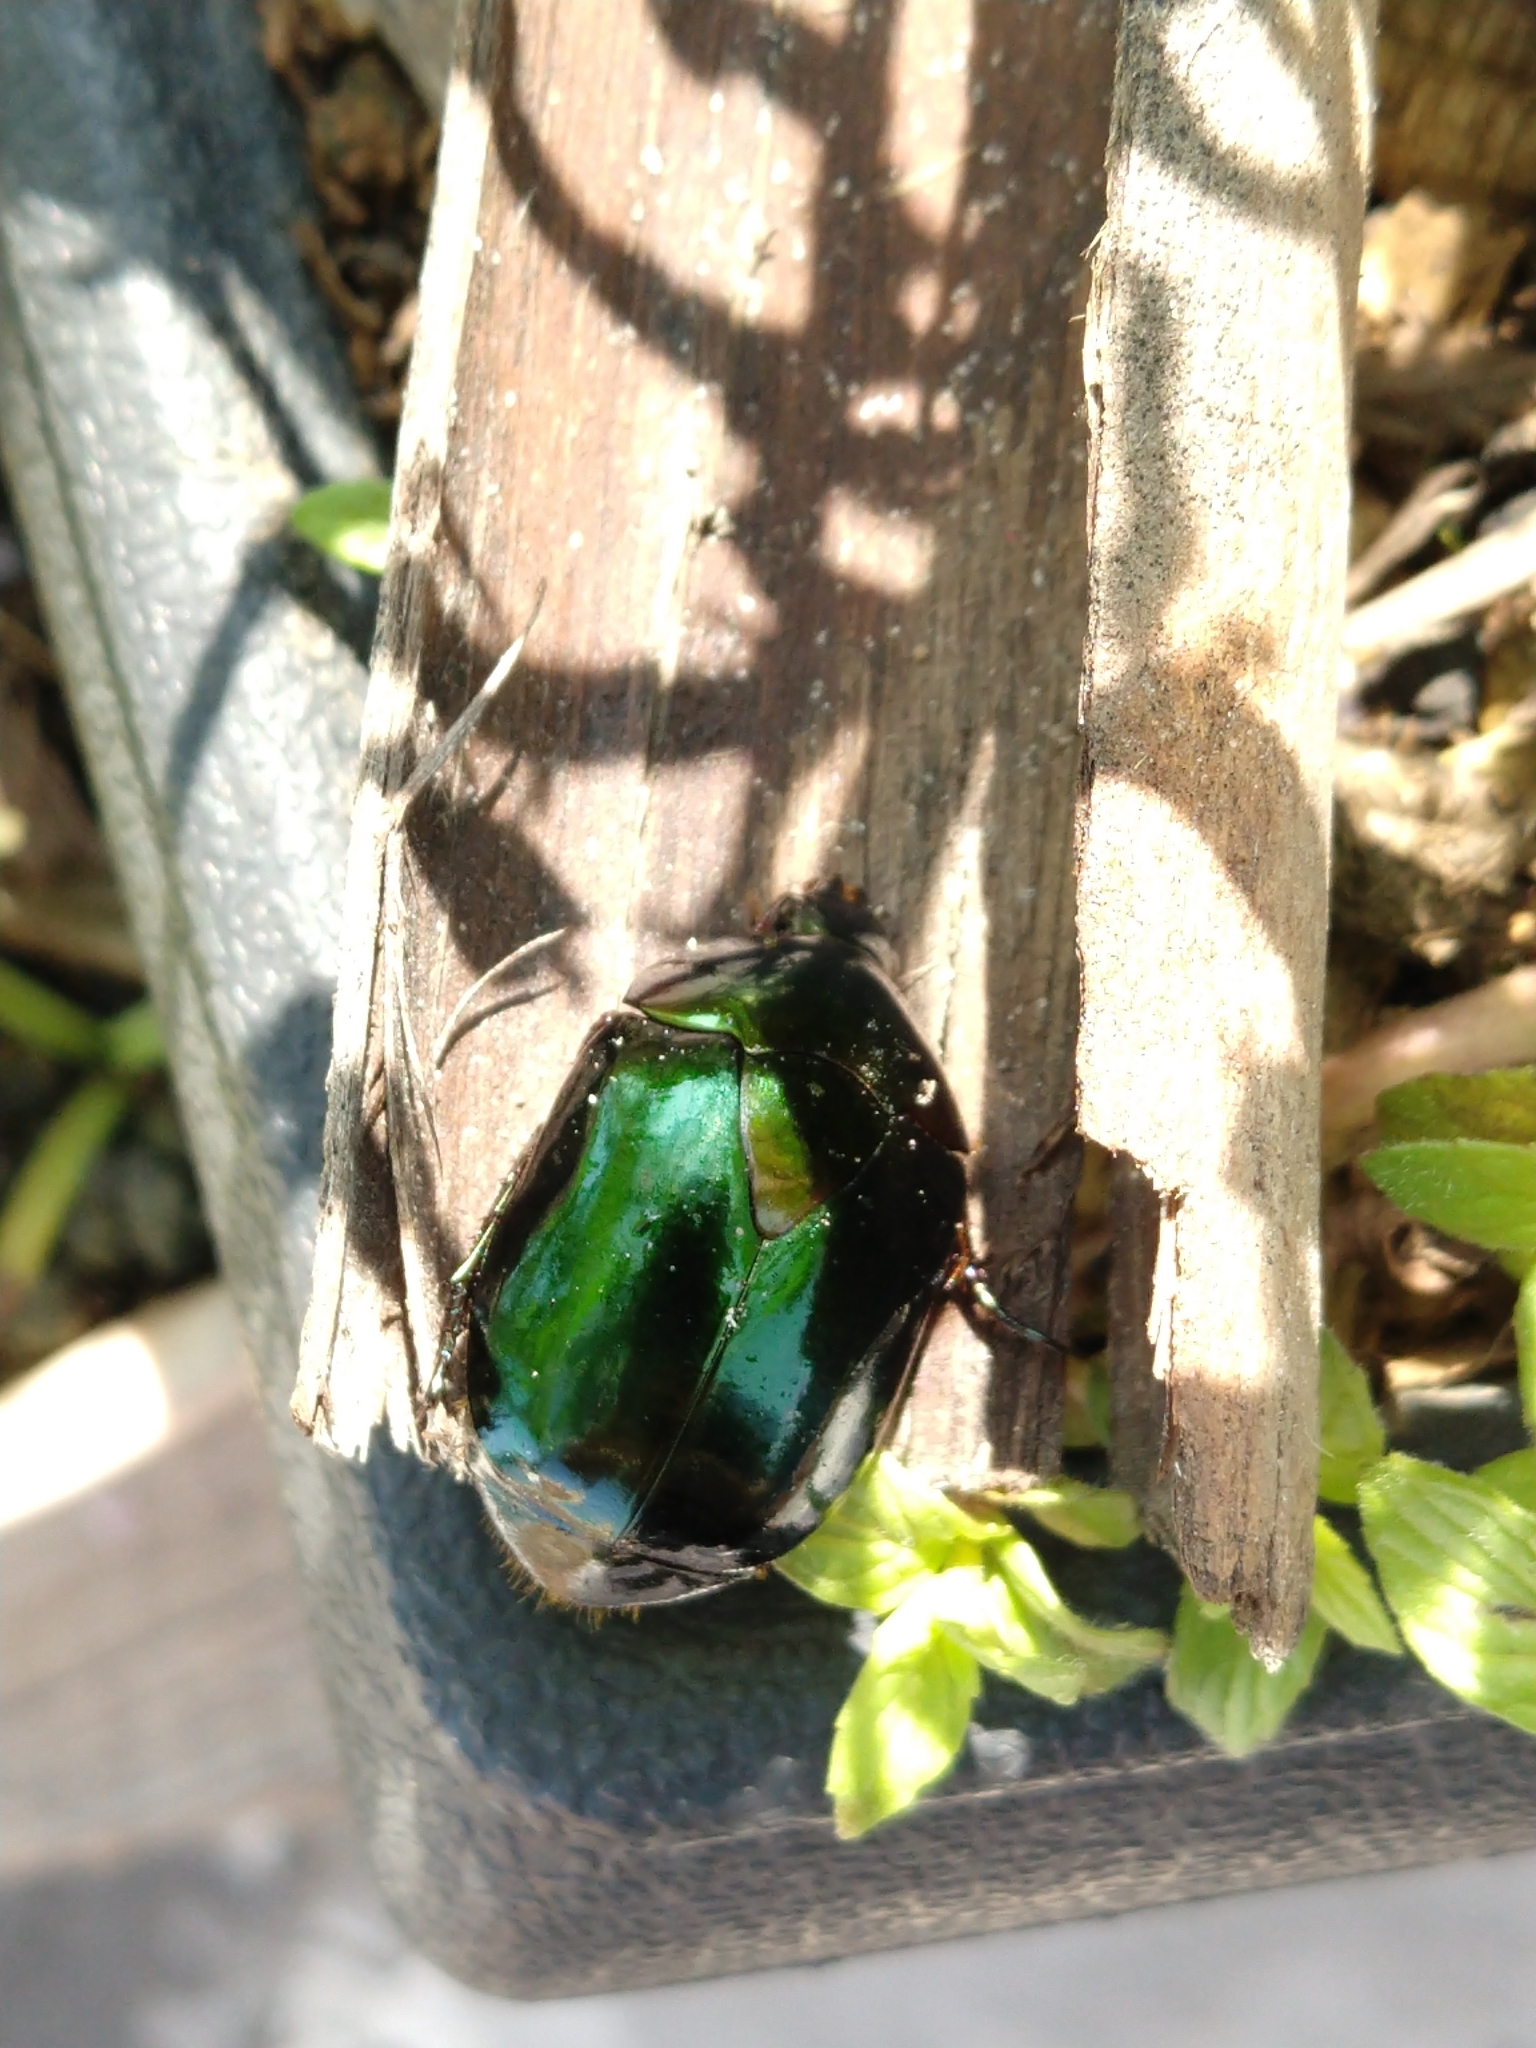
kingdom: Animalia
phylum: Arthropoda
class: Insecta
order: Coleoptera
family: Scarabaeidae
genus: Lagochile
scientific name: Lagochile emarginata
